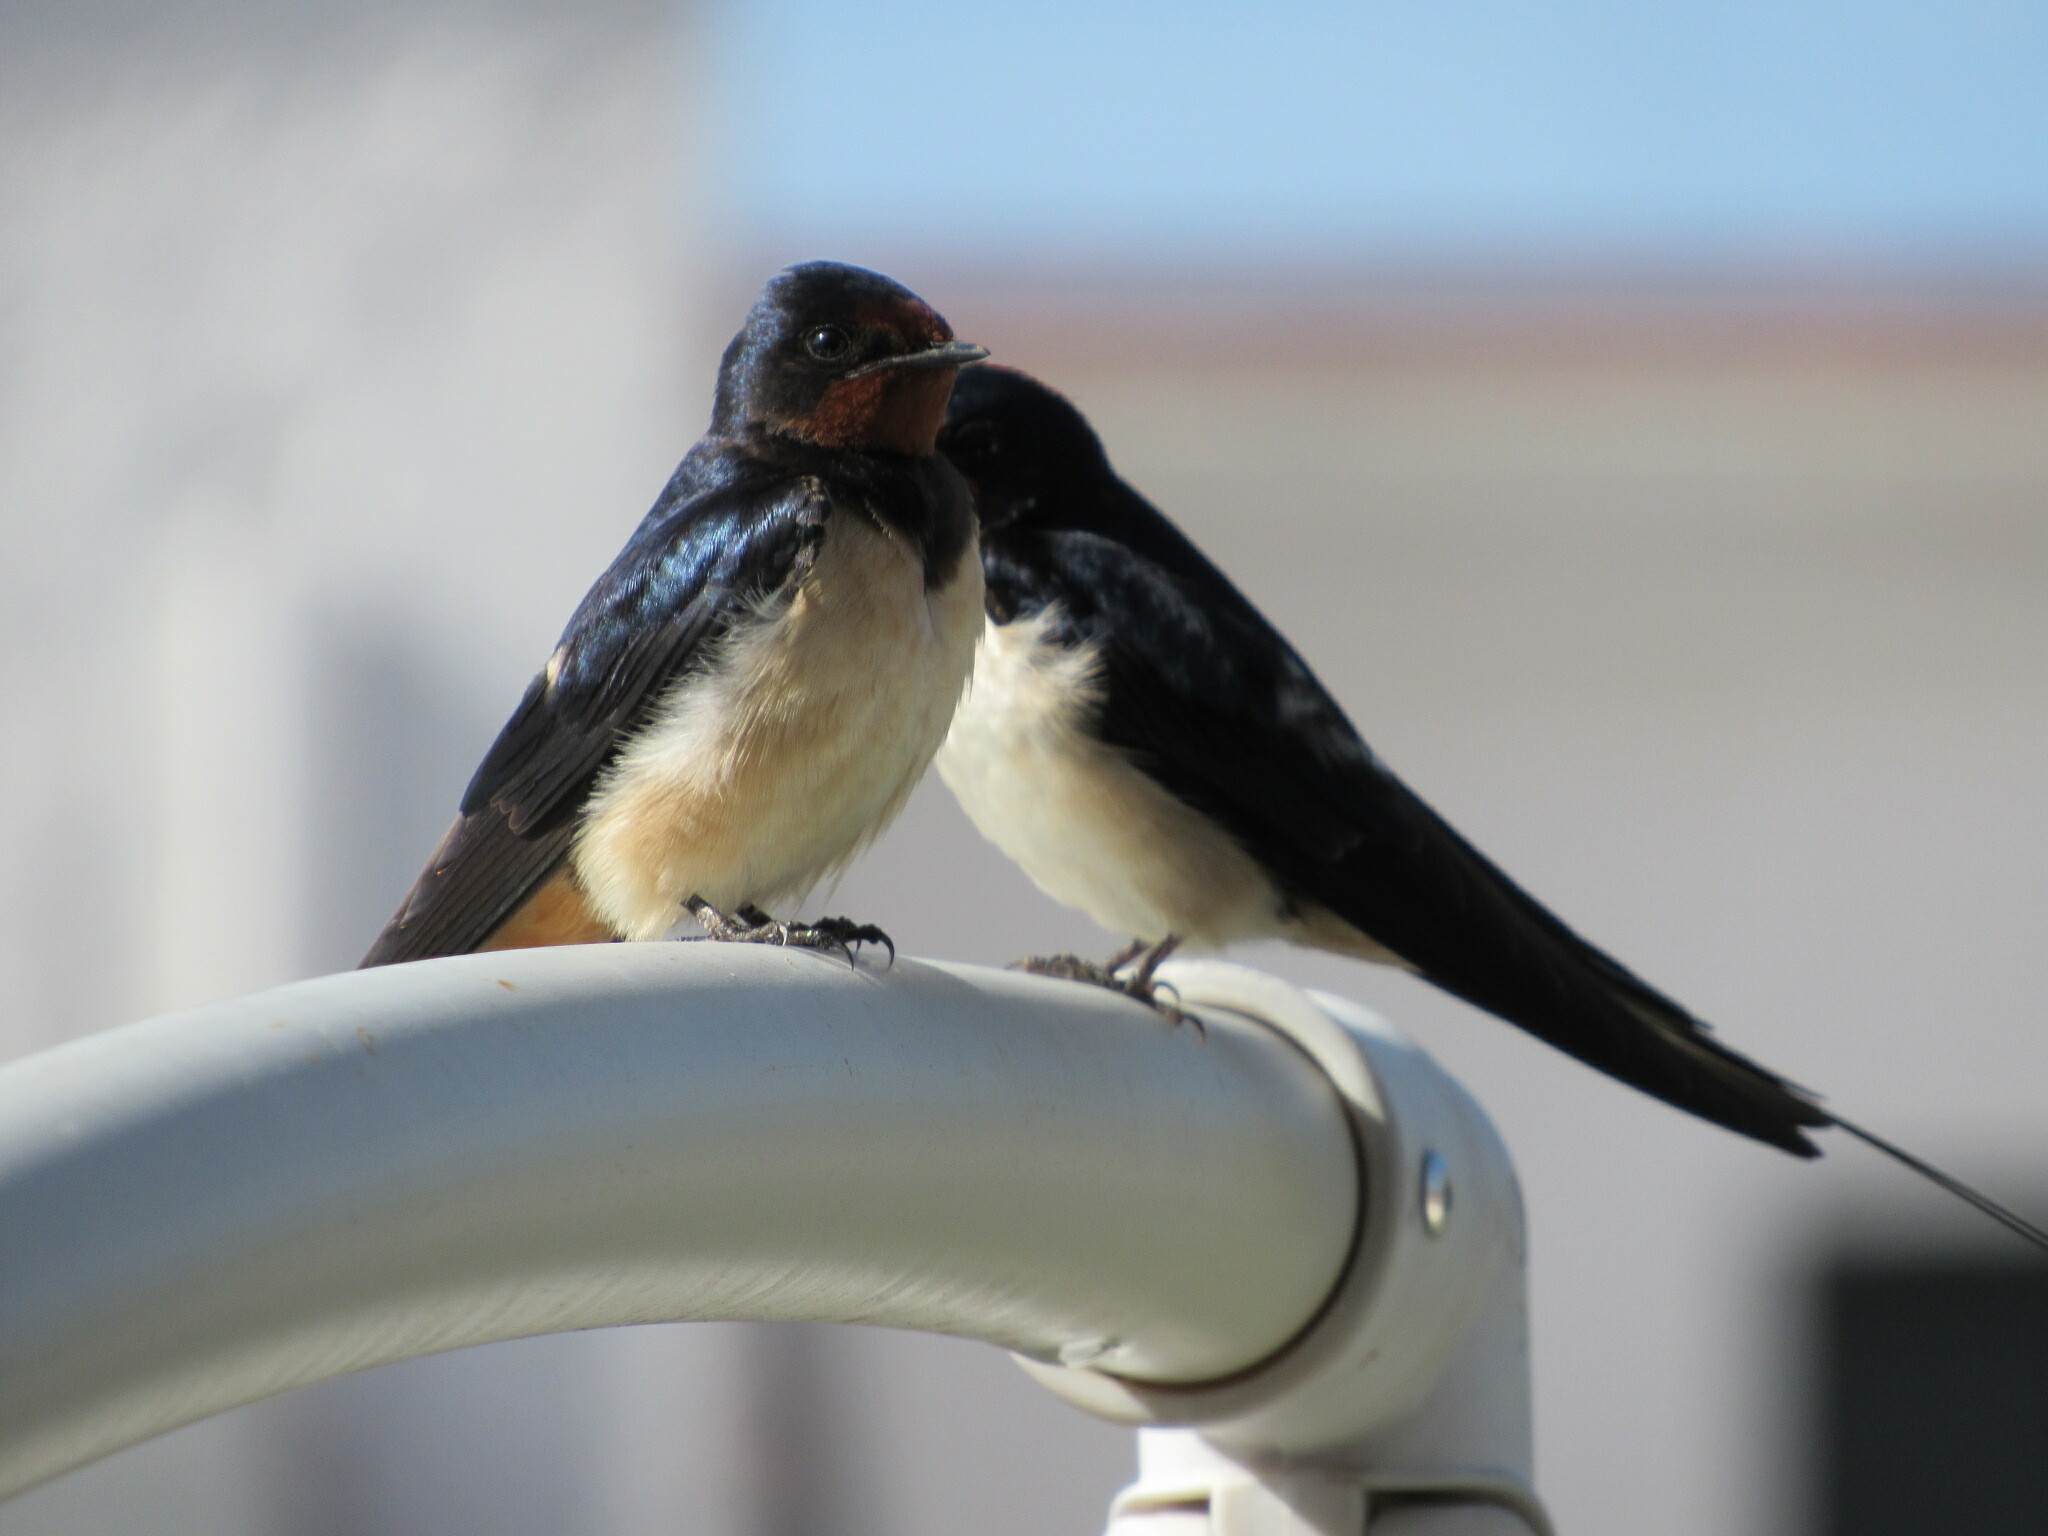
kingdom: Animalia
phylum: Chordata
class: Aves
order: Passeriformes
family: Hirundinidae
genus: Hirundo
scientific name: Hirundo rustica
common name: Barn swallow
